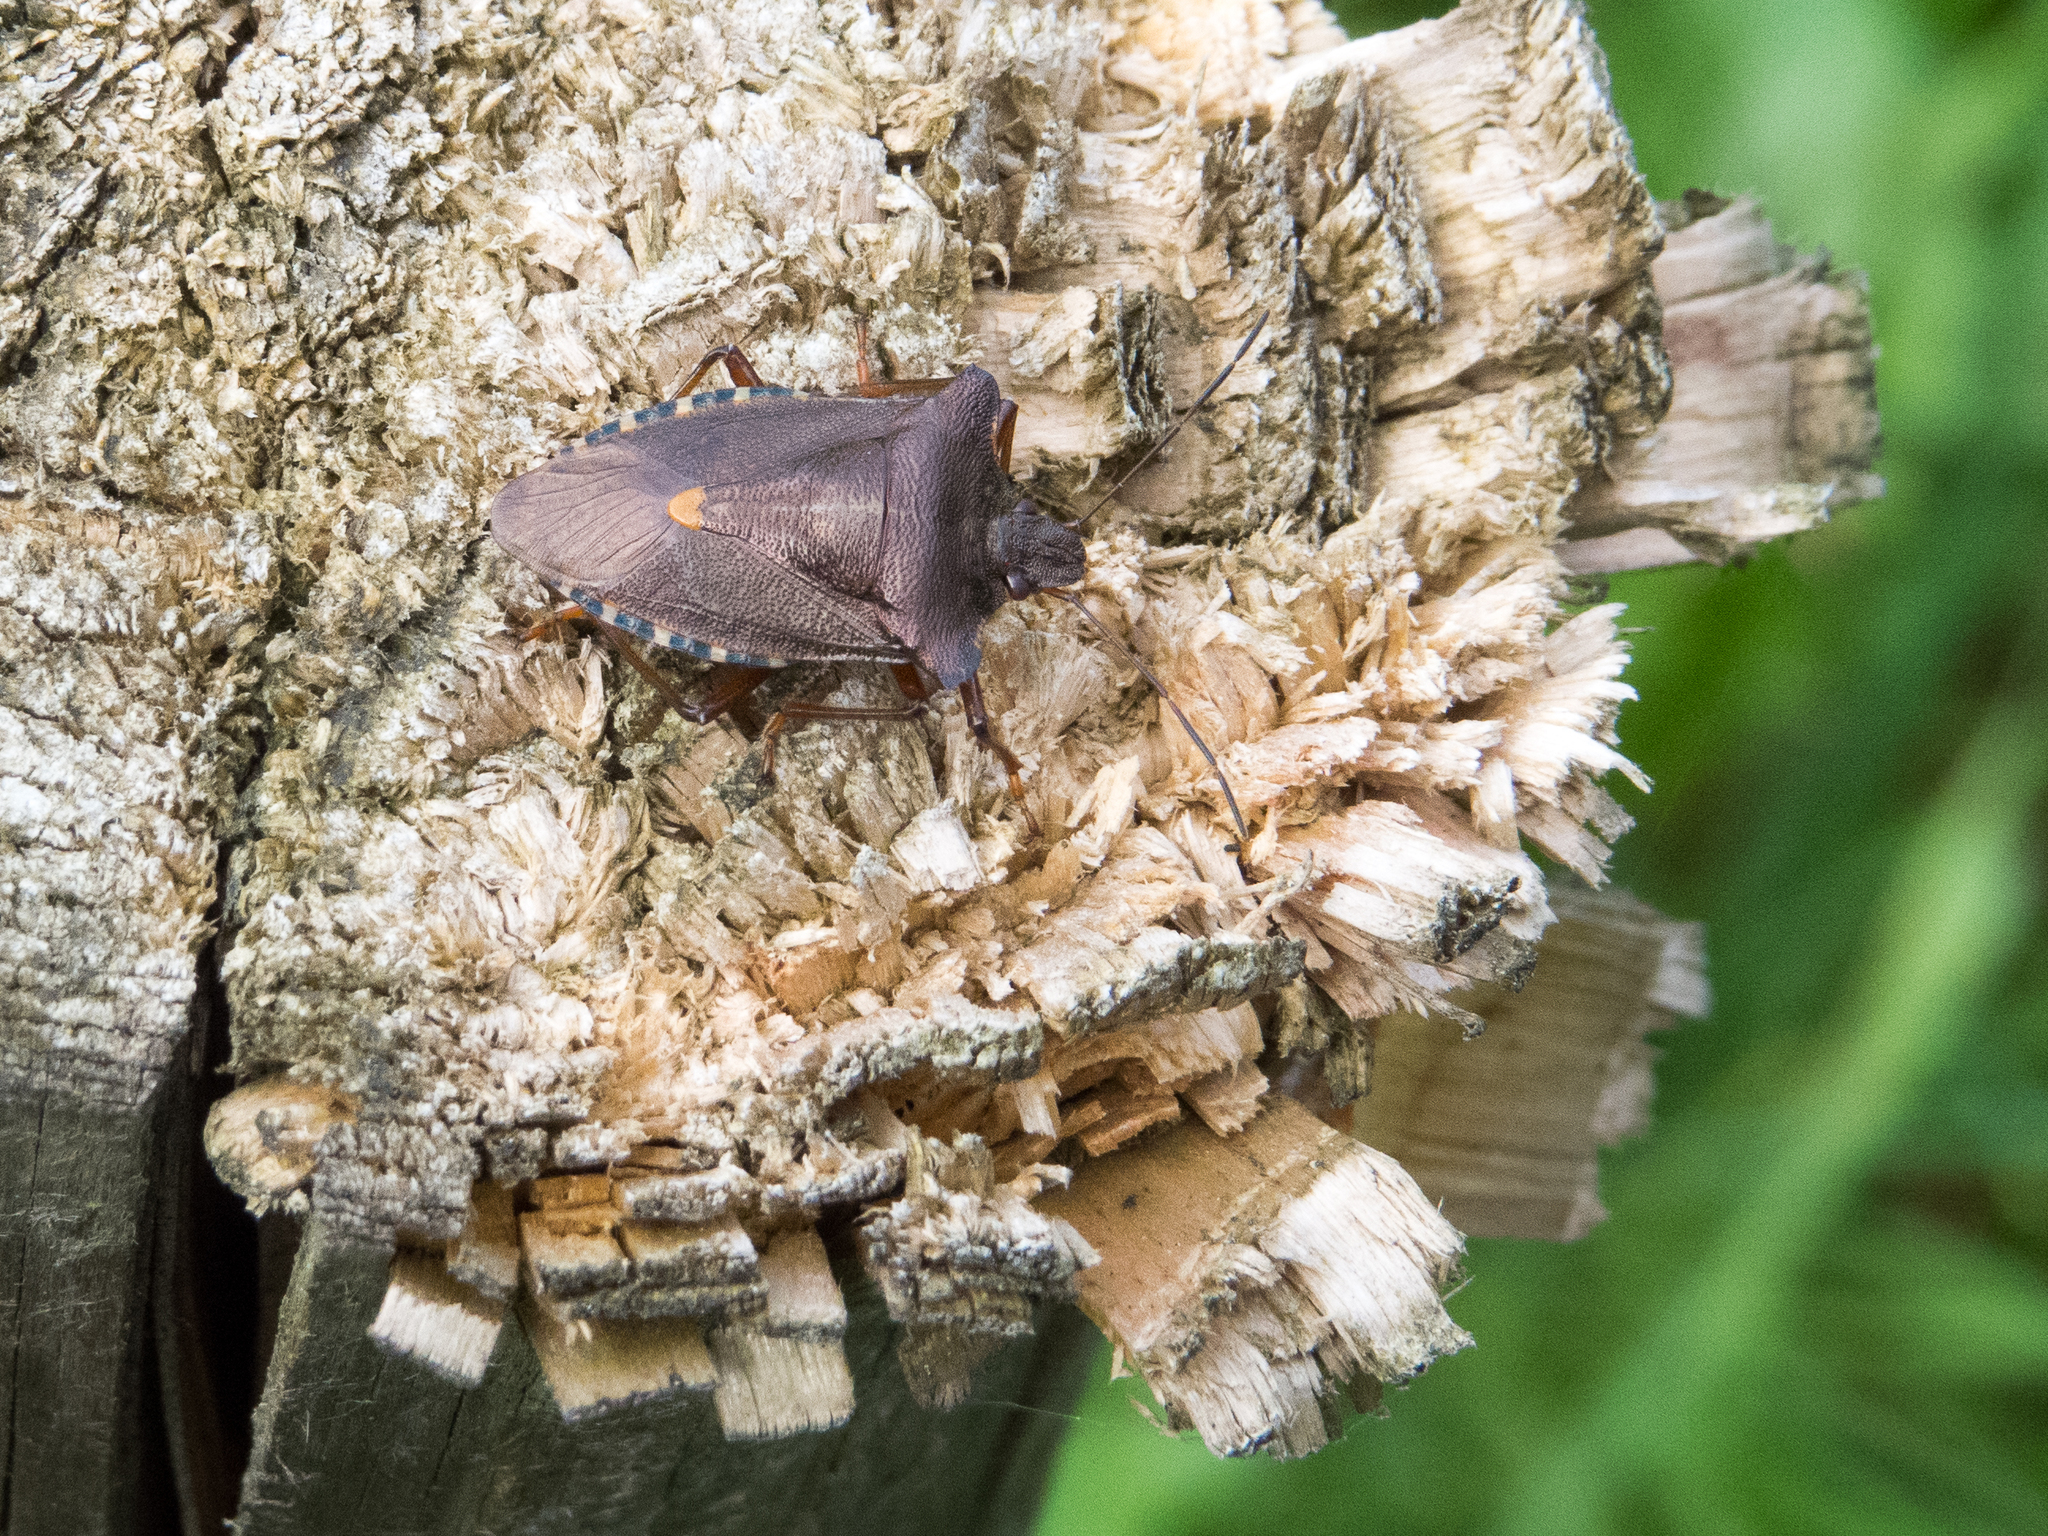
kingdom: Animalia
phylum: Arthropoda
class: Insecta
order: Hemiptera
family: Pentatomidae
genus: Pentatoma
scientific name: Pentatoma rufipes
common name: Forest bug
